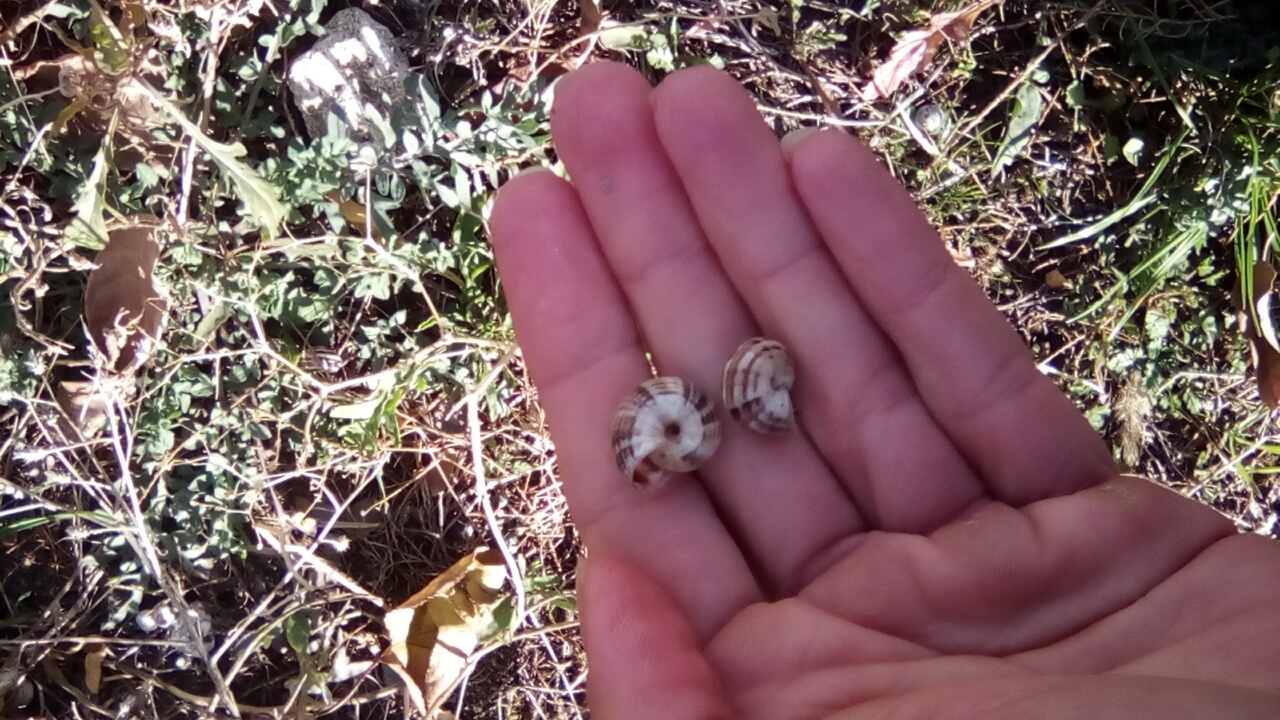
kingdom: Animalia
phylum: Mollusca
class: Gastropoda
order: Stylommatophora
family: Geomitridae
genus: Xeropicta
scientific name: Xeropicta krynickii
